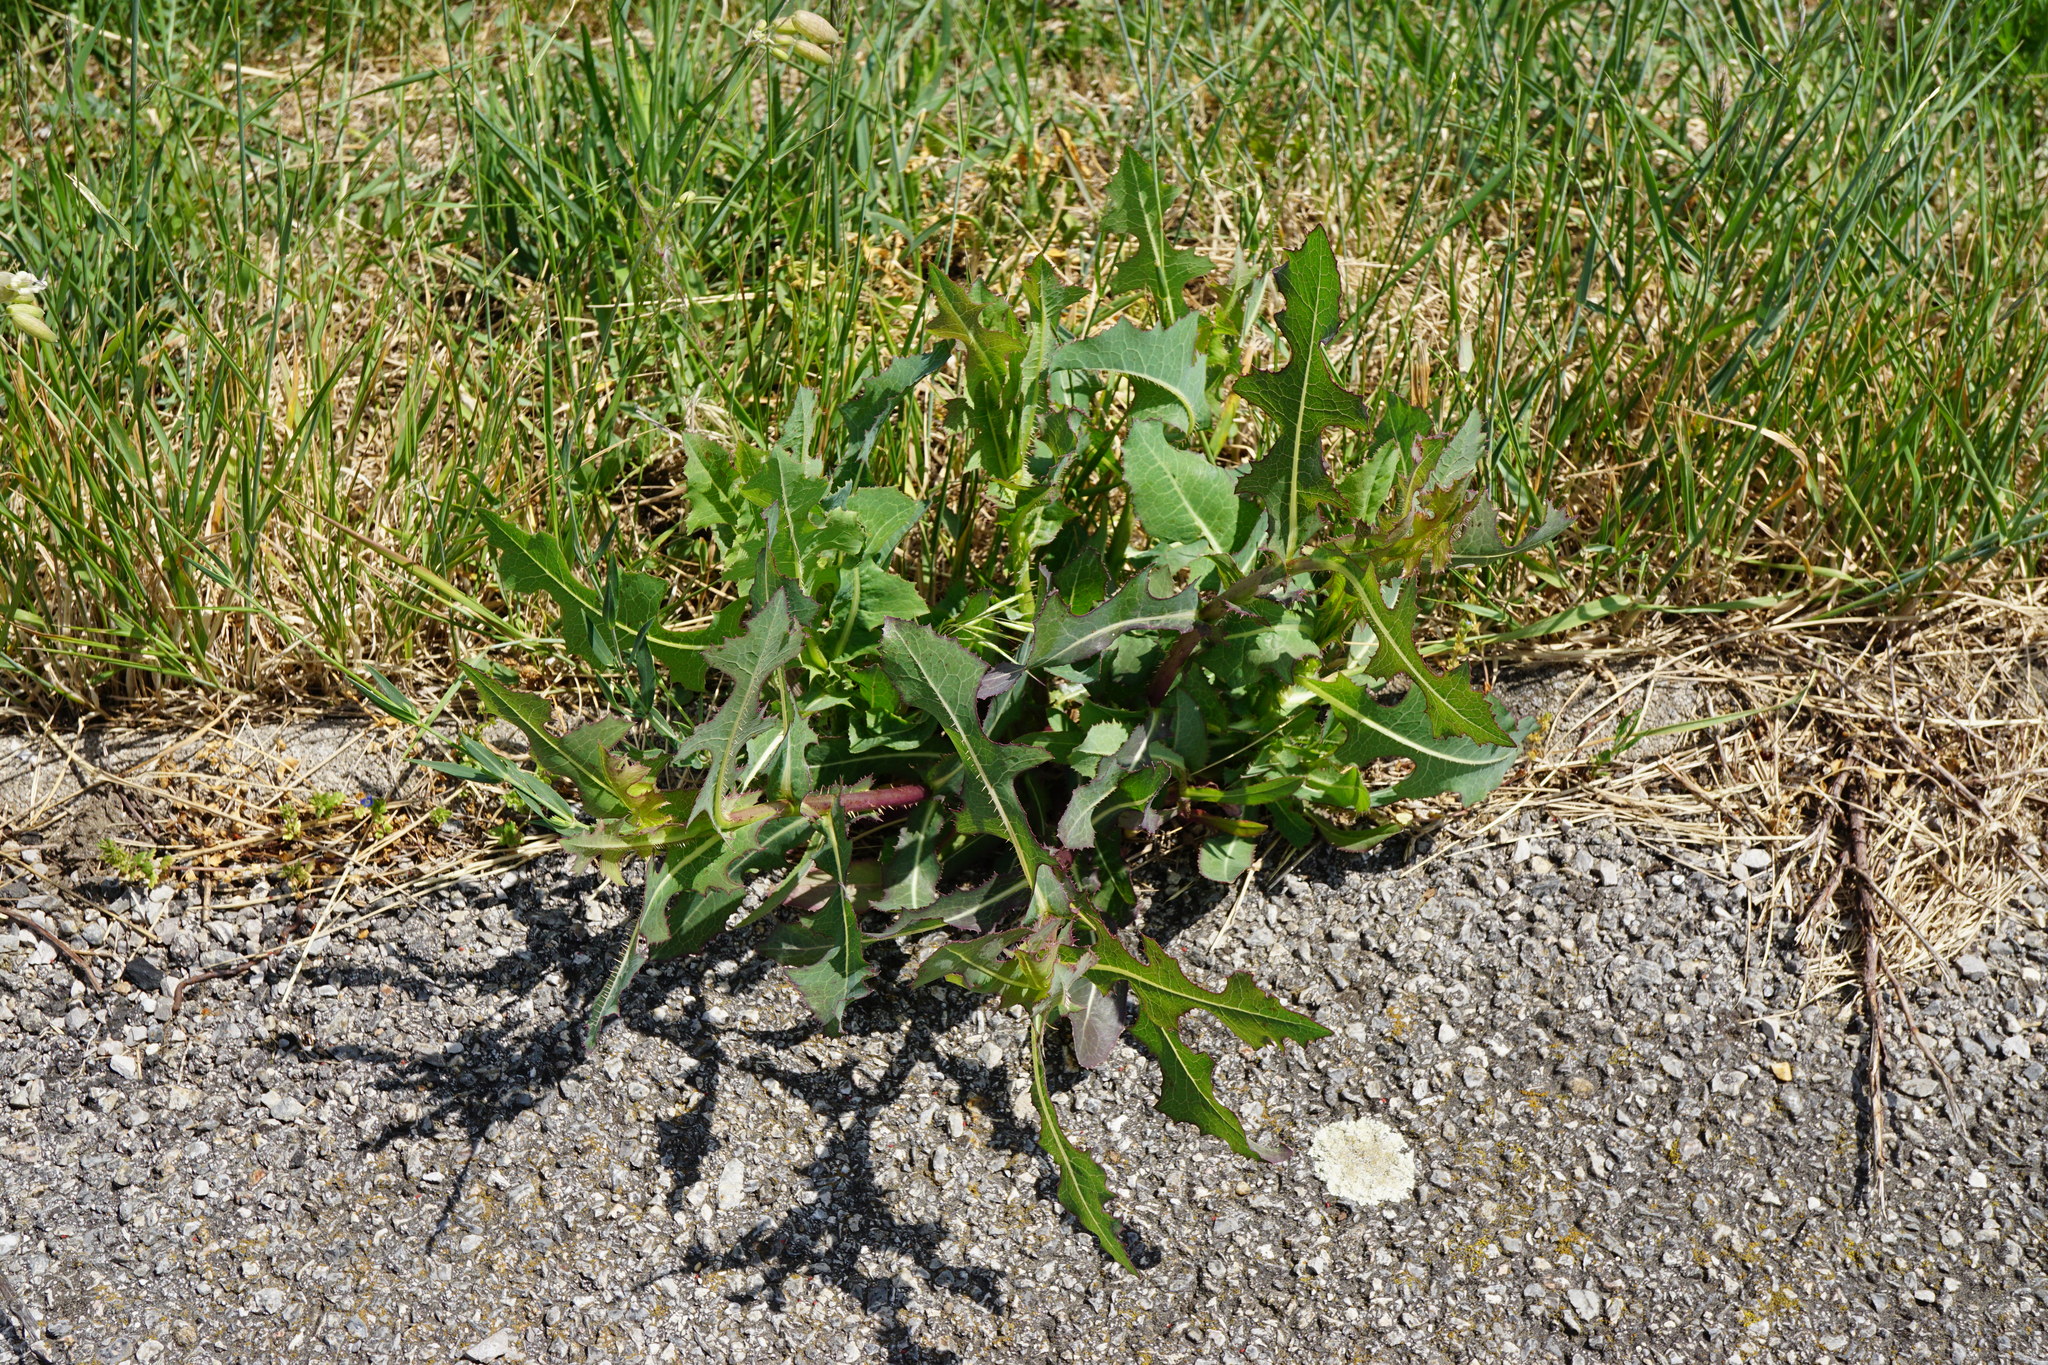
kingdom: Plantae
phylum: Tracheophyta
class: Magnoliopsida
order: Asterales
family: Asteraceae
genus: Lactuca
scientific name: Lactuca serriola
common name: Prickly lettuce
